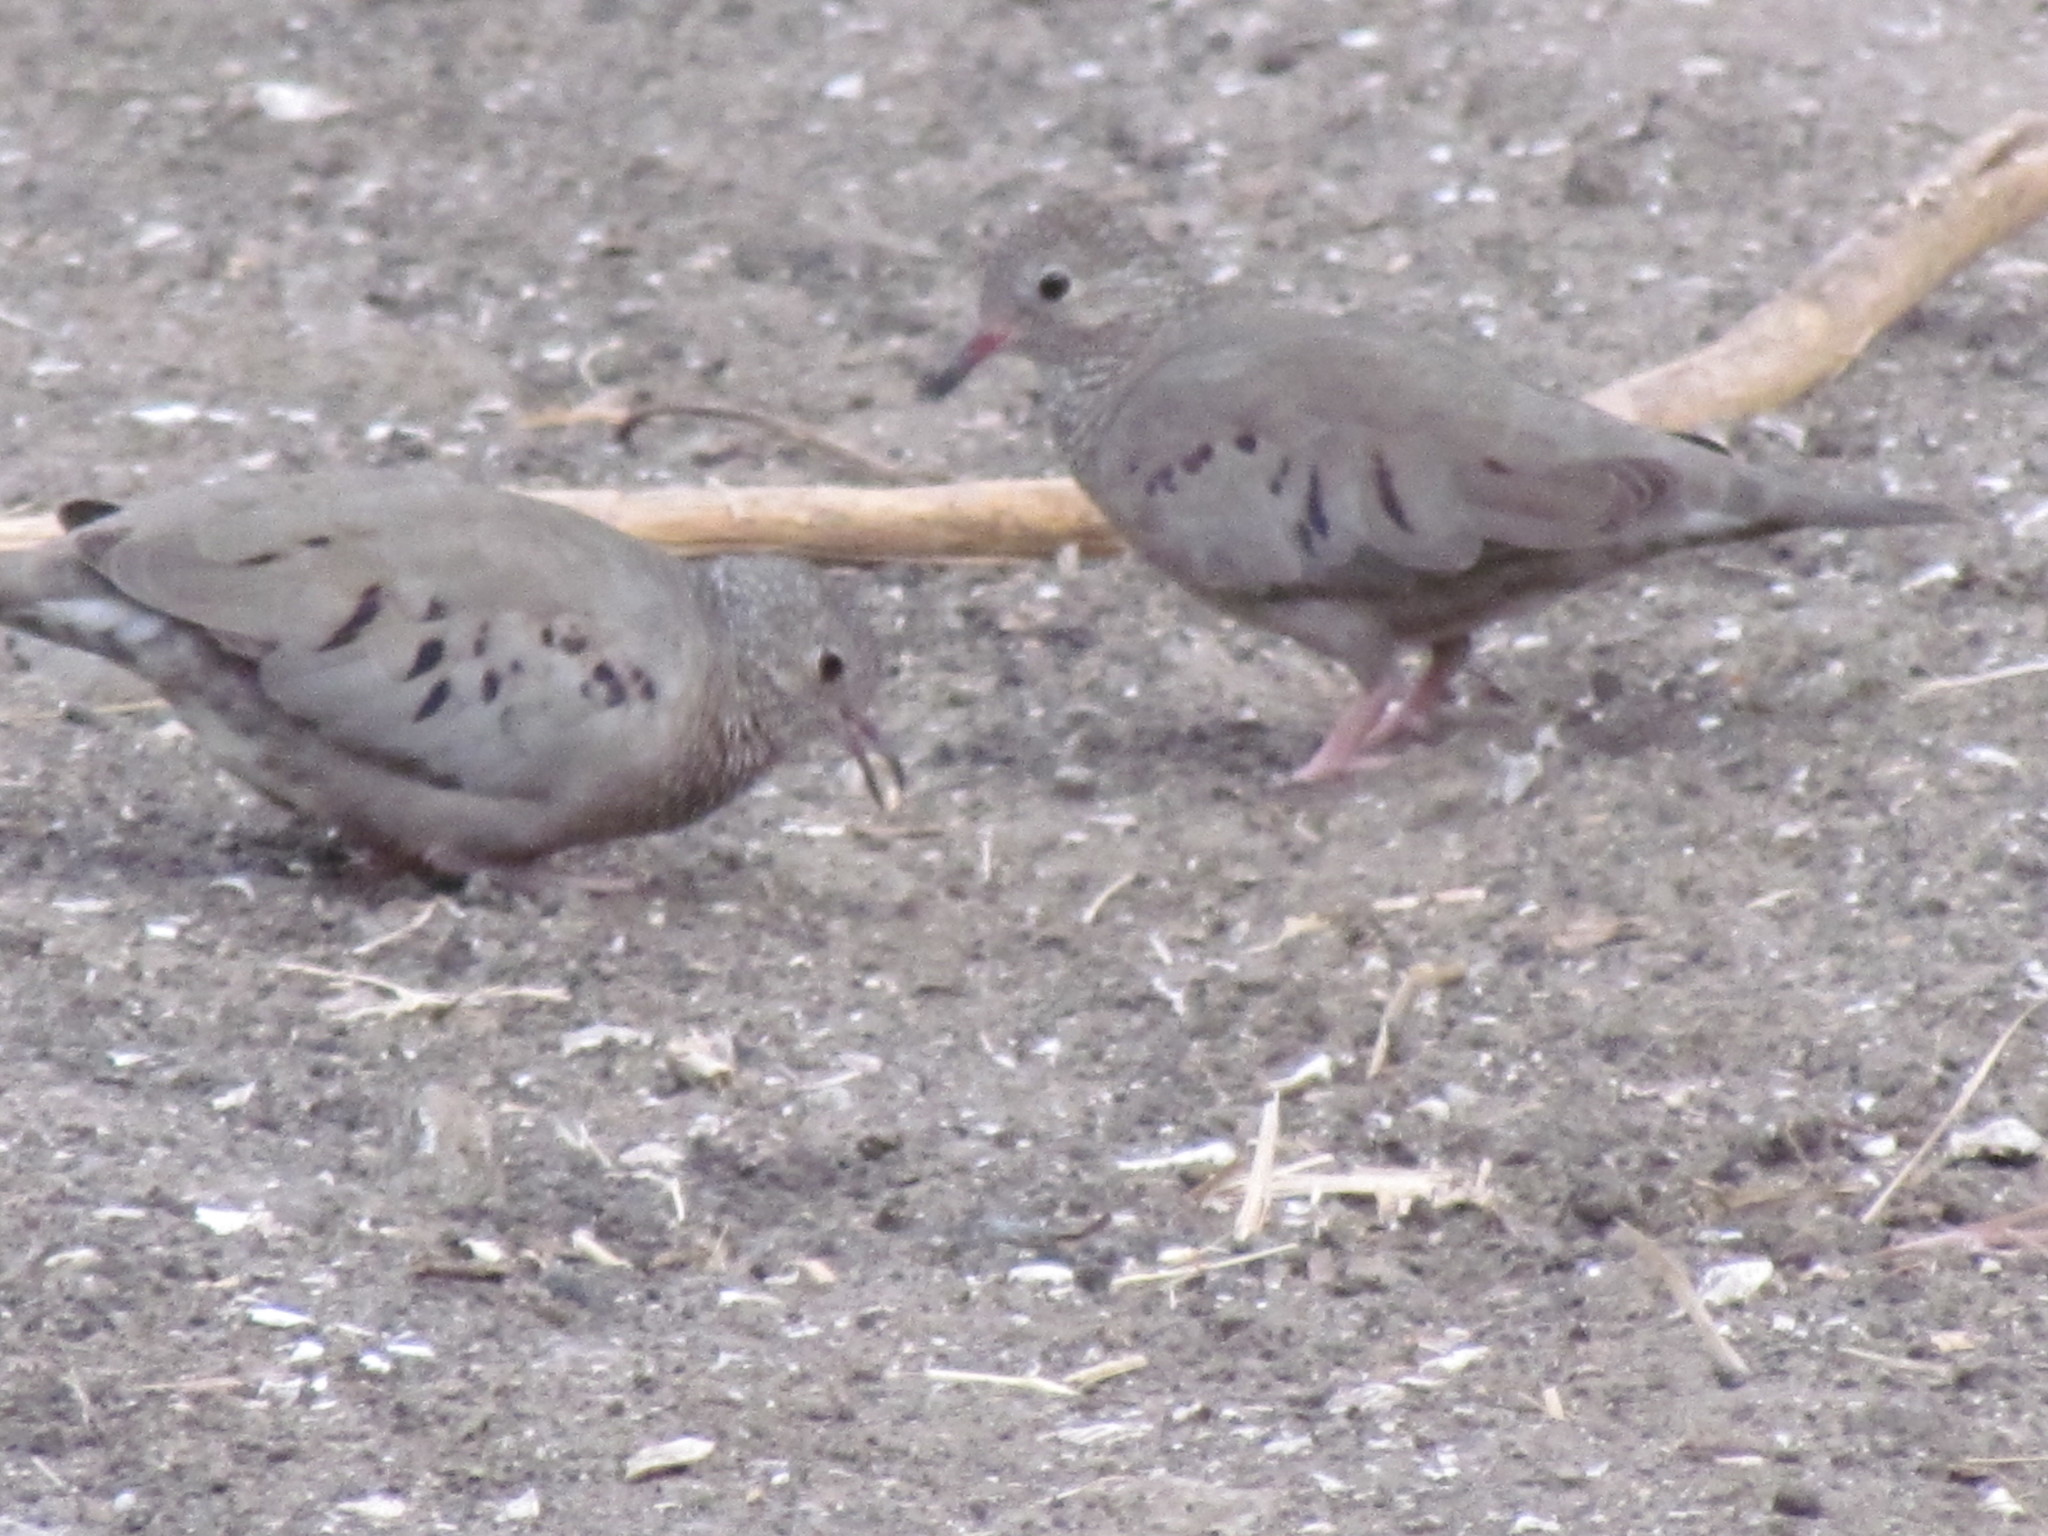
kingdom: Animalia
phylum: Chordata
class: Aves
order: Columbiformes
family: Columbidae
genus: Columbina
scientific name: Columbina passerina
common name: Common ground-dove
